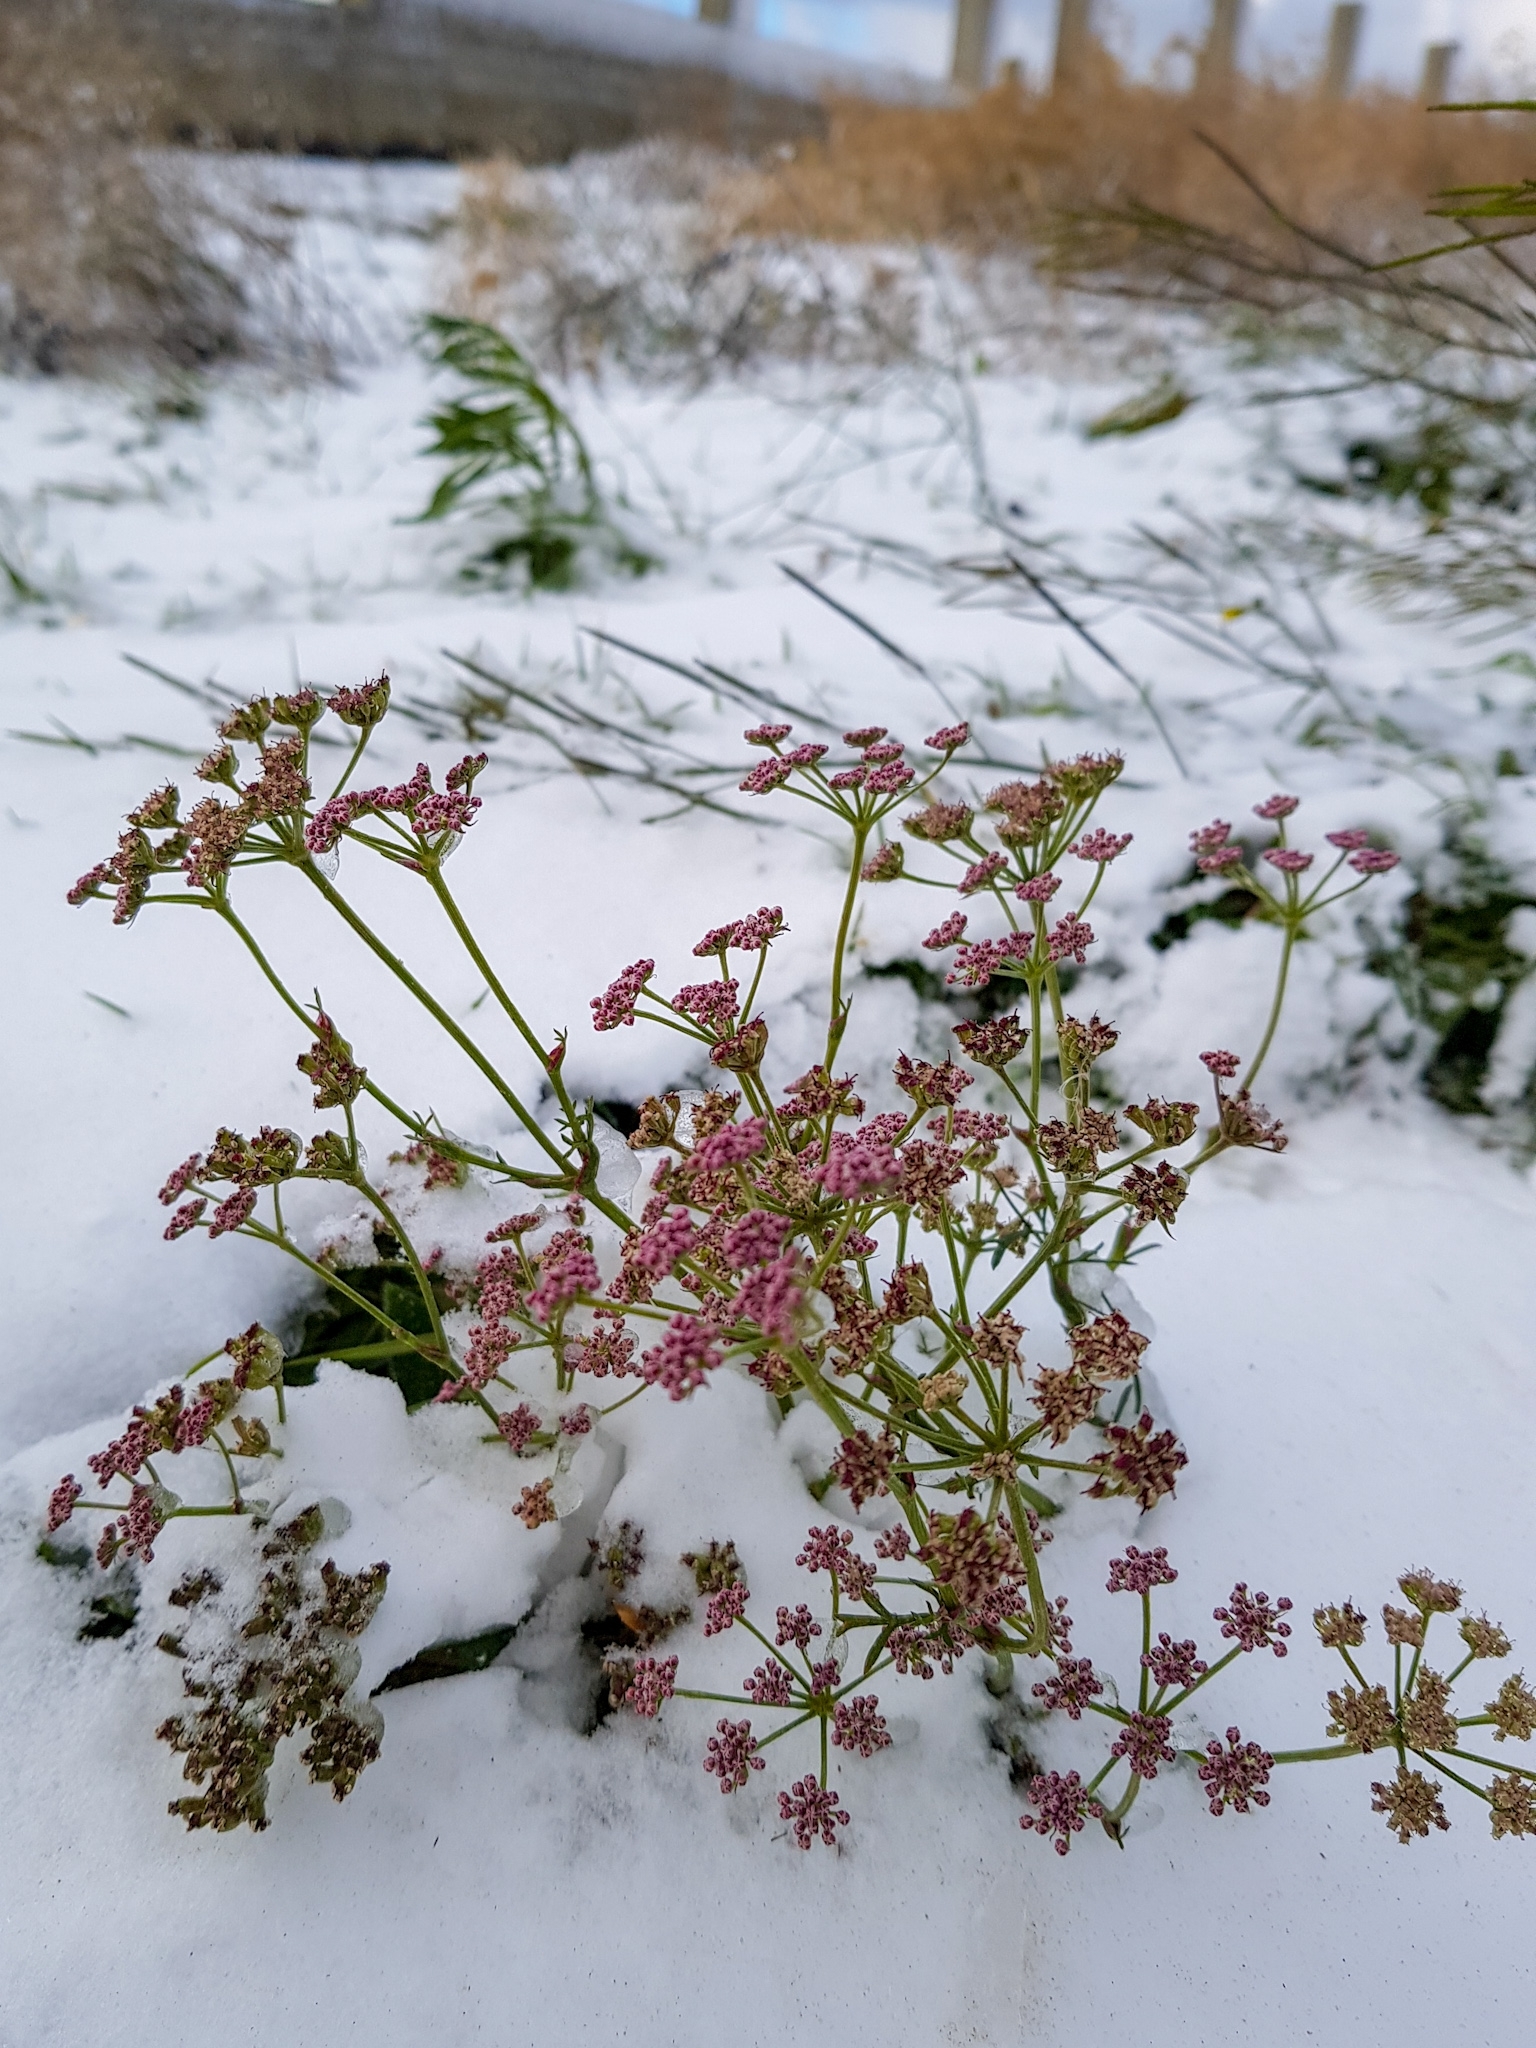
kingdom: Plantae
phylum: Tracheophyta
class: Magnoliopsida
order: Apiales
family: Apiaceae
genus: Pimpinella
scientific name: Pimpinella rhodantha
